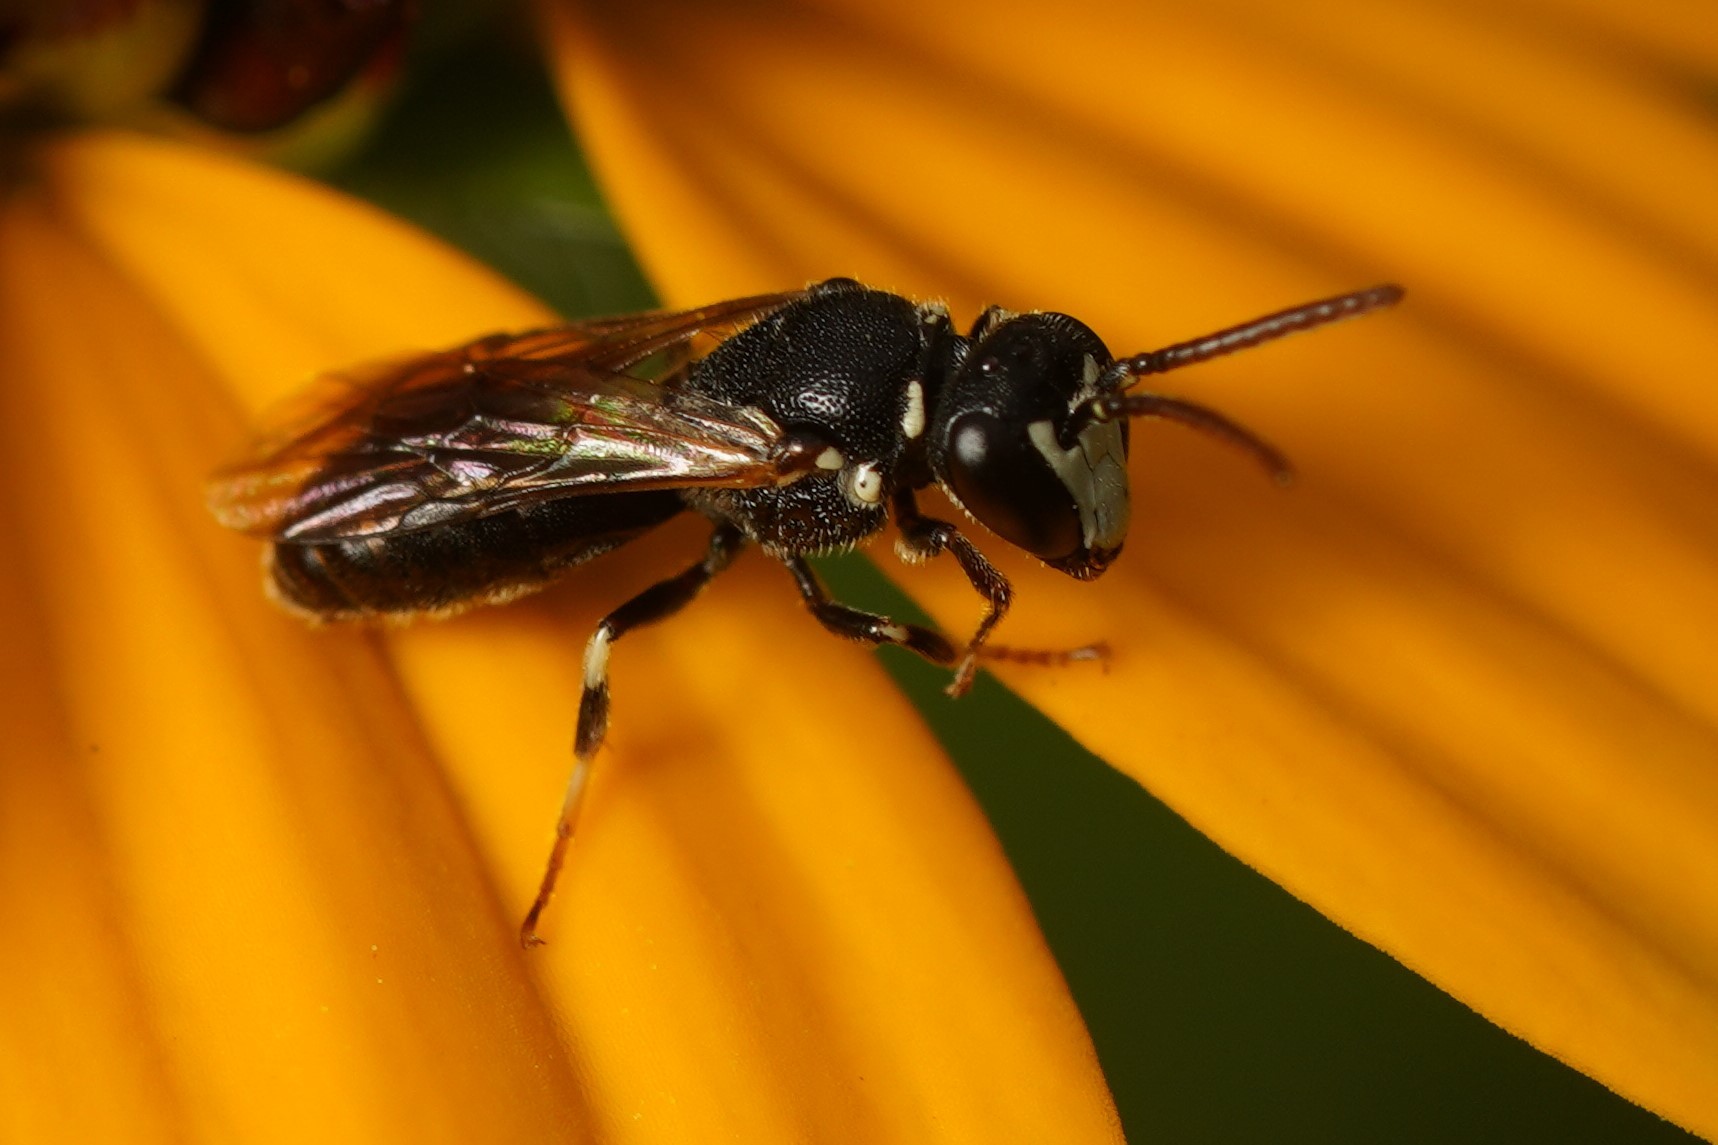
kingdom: Animalia
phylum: Arthropoda
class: Insecta
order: Hymenoptera
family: Colletidae
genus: Hylaeus
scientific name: Hylaeus leptocephalus
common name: Slender-faced masked bee
